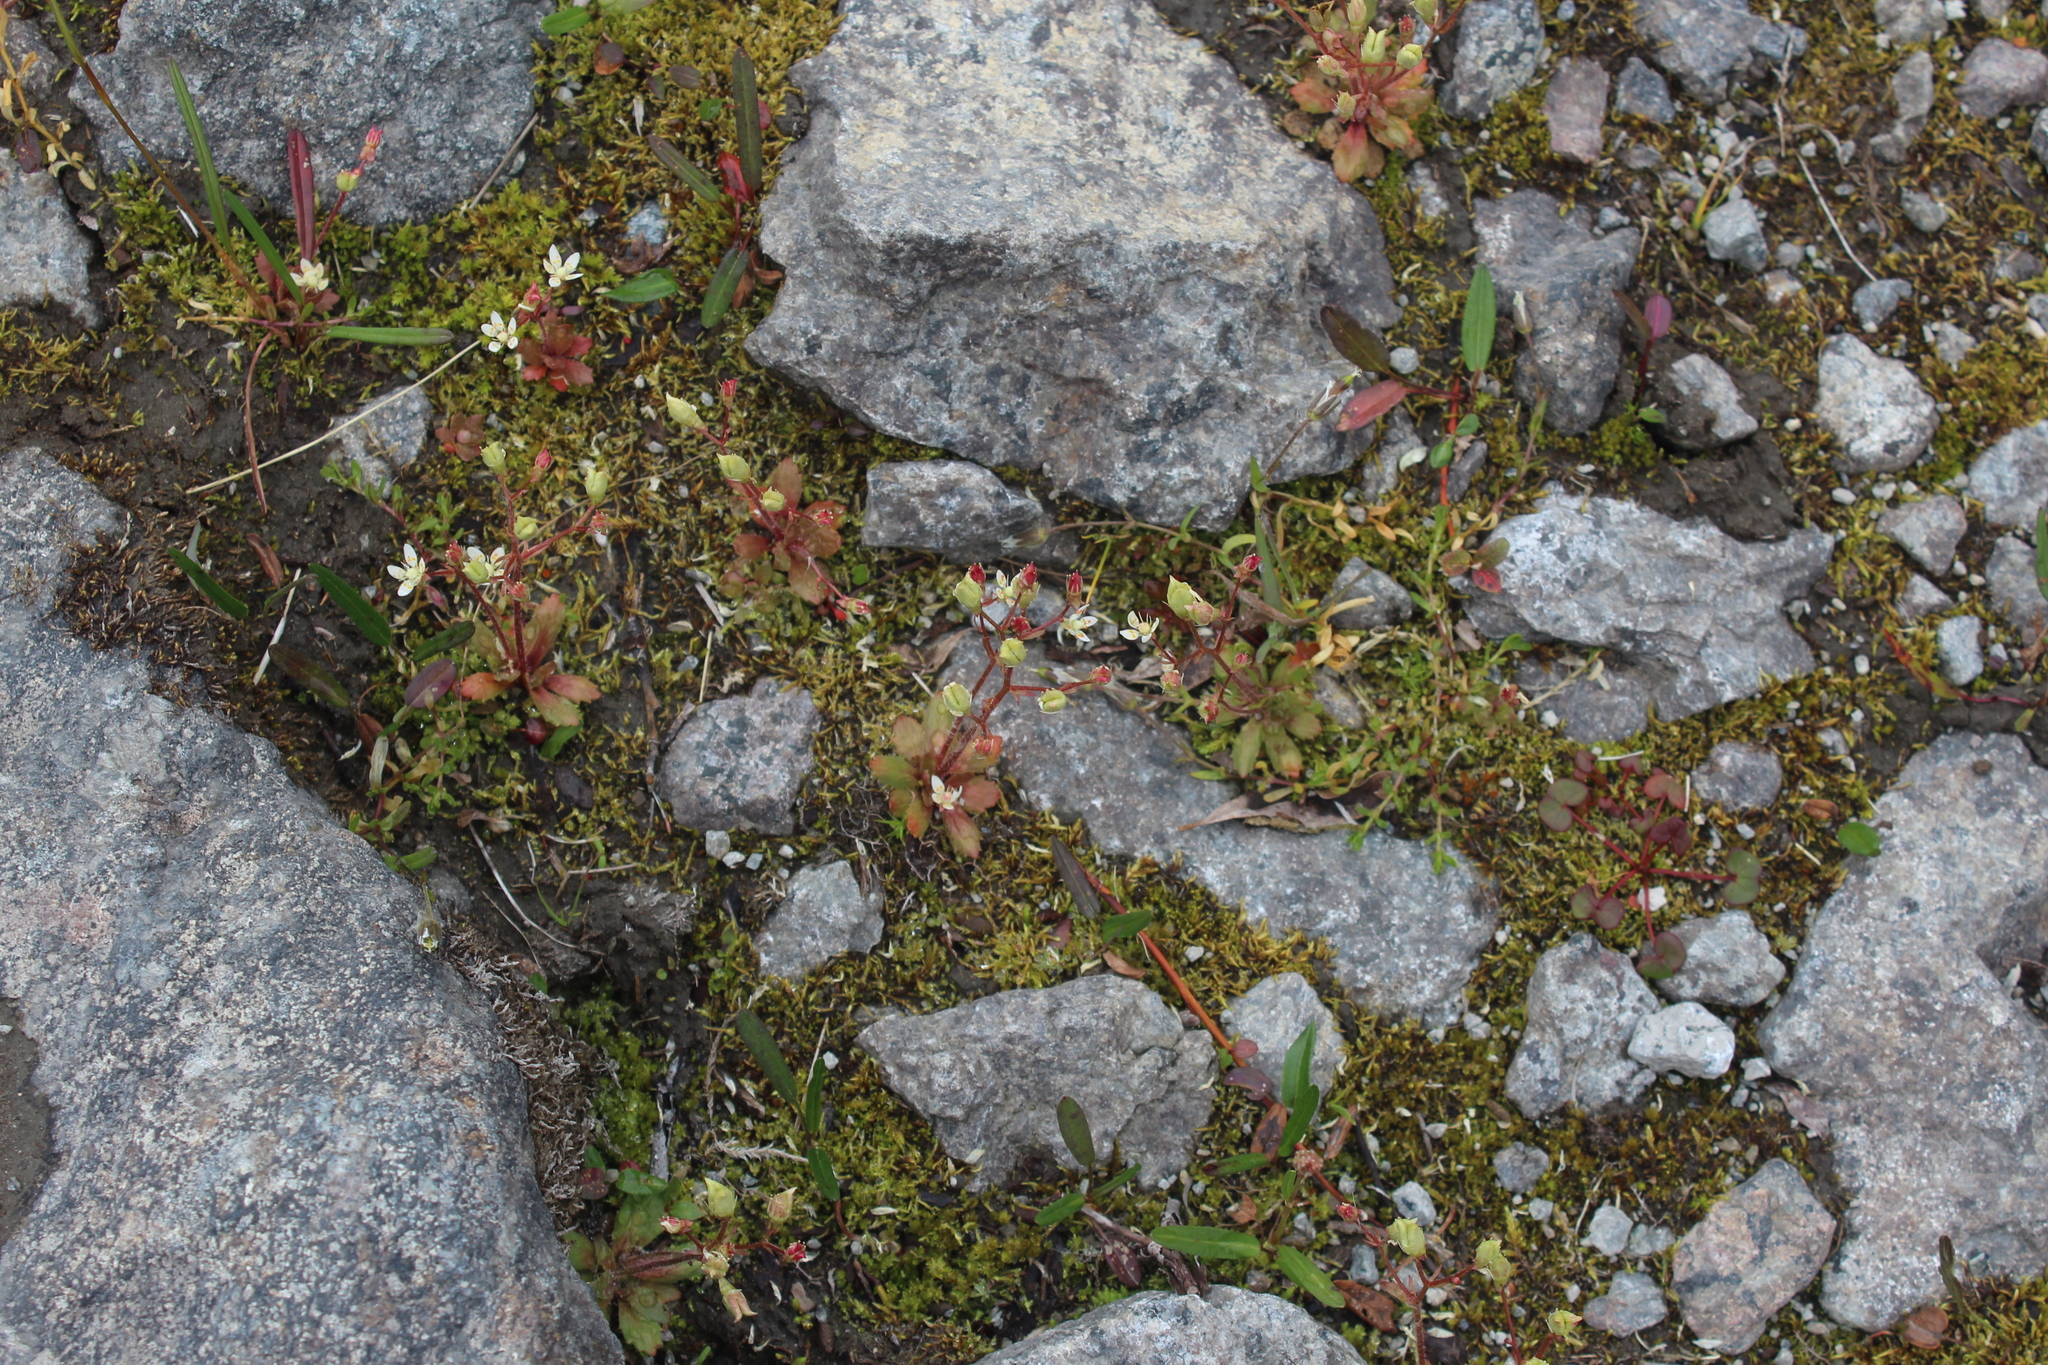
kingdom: Plantae
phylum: Tracheophyta
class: Magnoliopsida
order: Saxifragales
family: Saxifragaceae
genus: Micranthes
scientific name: Micranthes stellaris
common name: Starry saxifrage
